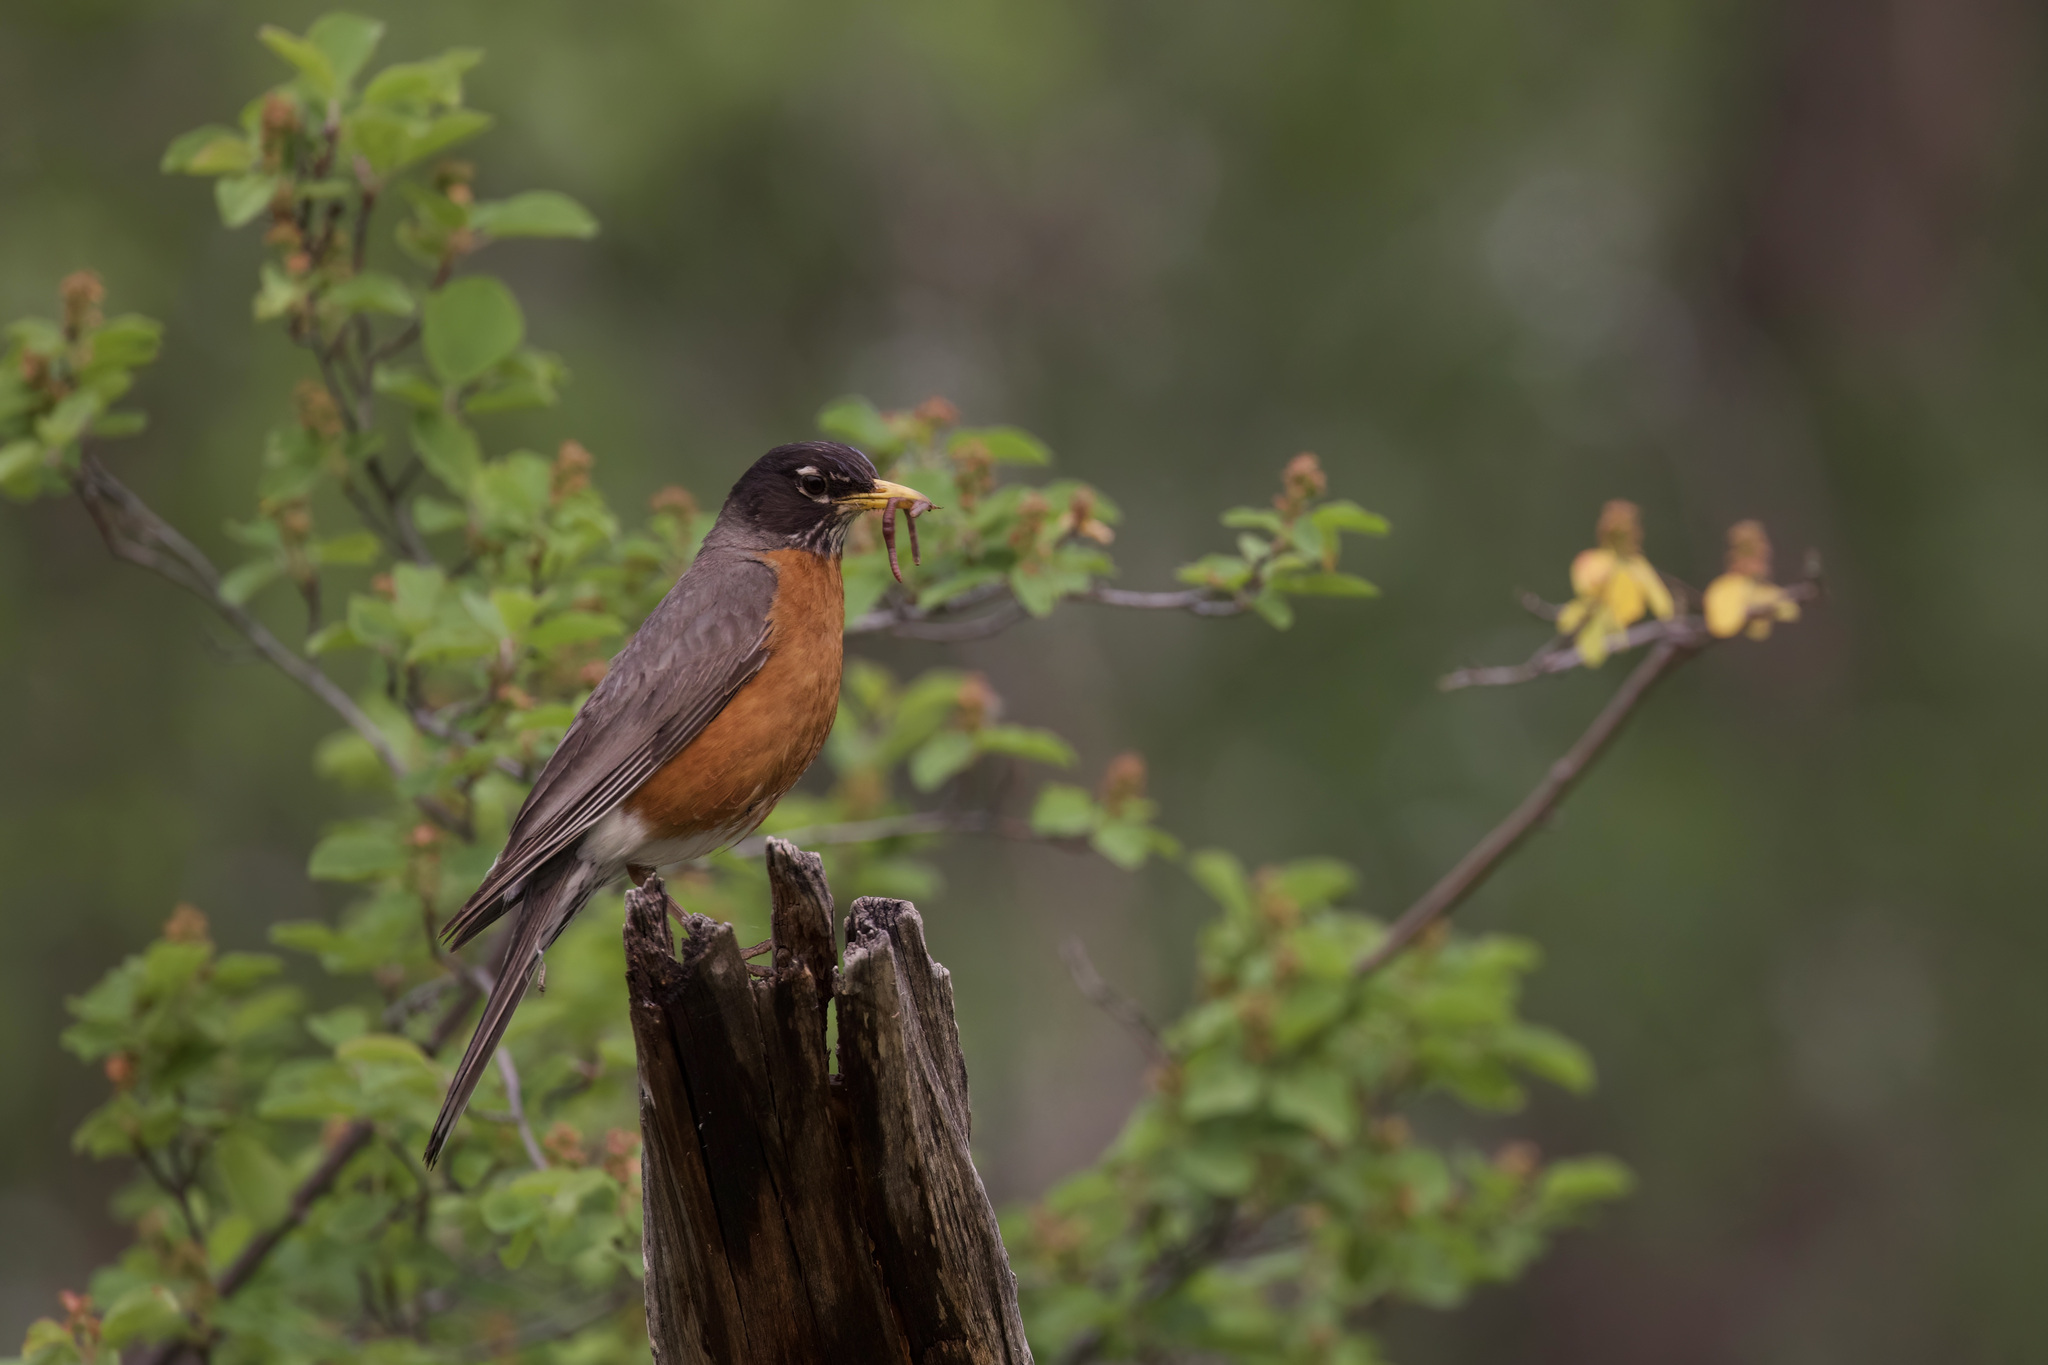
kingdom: Animalia
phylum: Chordata
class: Aves
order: Passeriformes
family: Turdidae
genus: Turdus
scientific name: Turdus migratorius
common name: American robin
